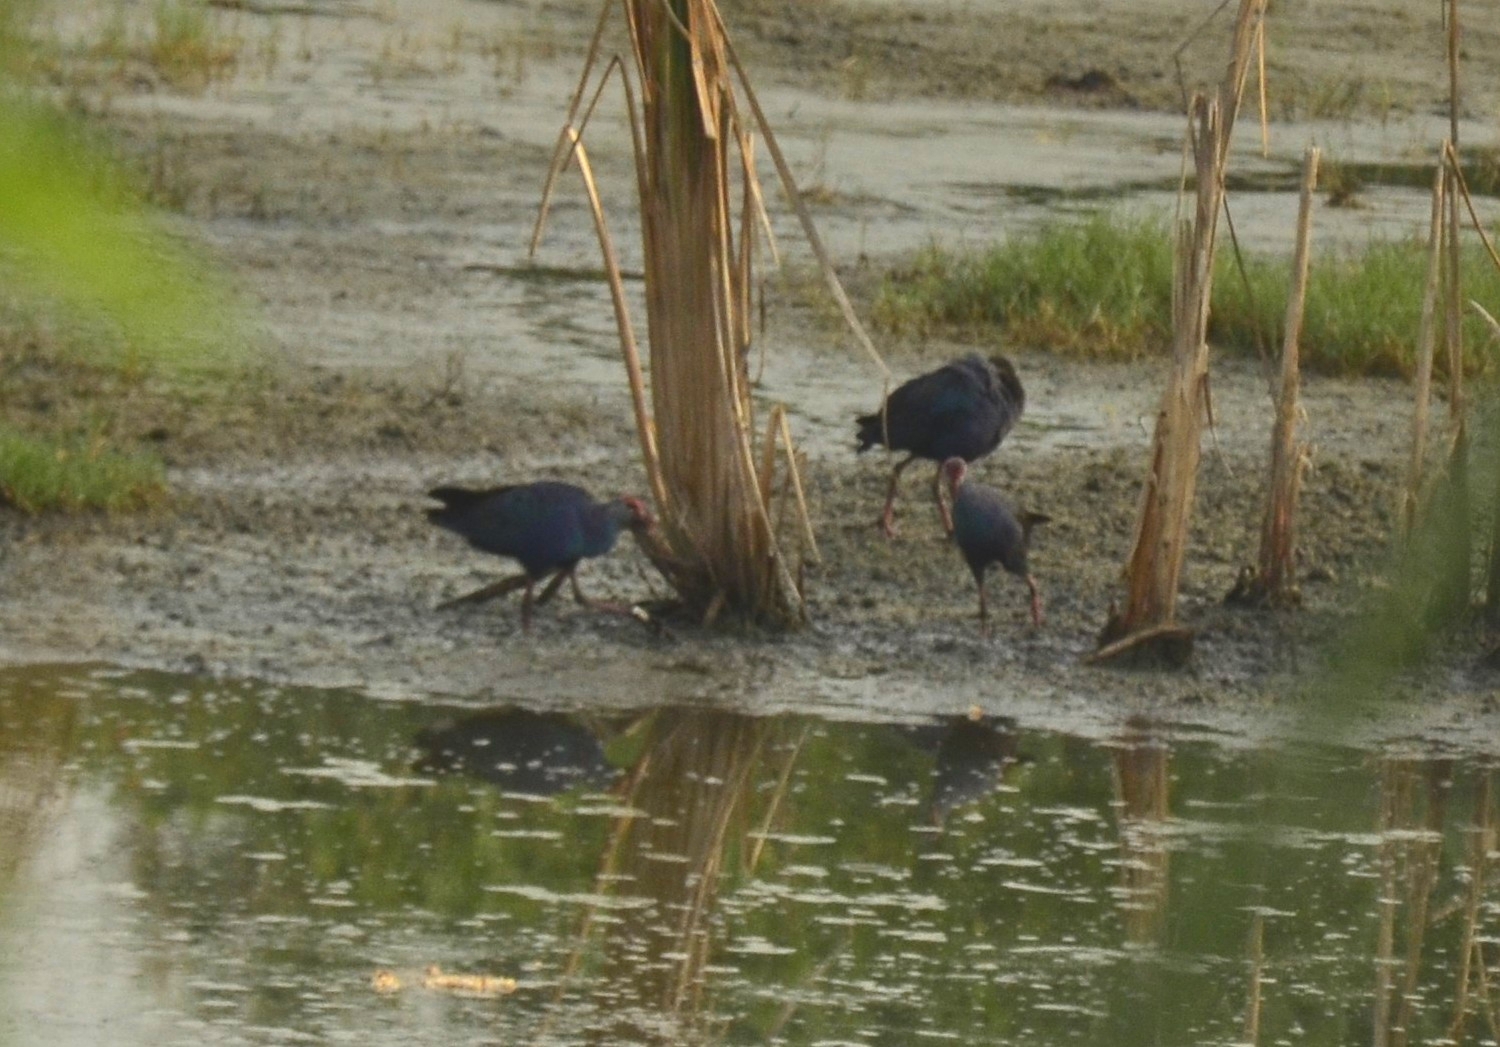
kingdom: Animalia
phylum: Chordata
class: Aves
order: Gruiformes
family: Rallidae
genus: Porphyrio
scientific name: Porphyrio porphyrio
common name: Purple swamphen
